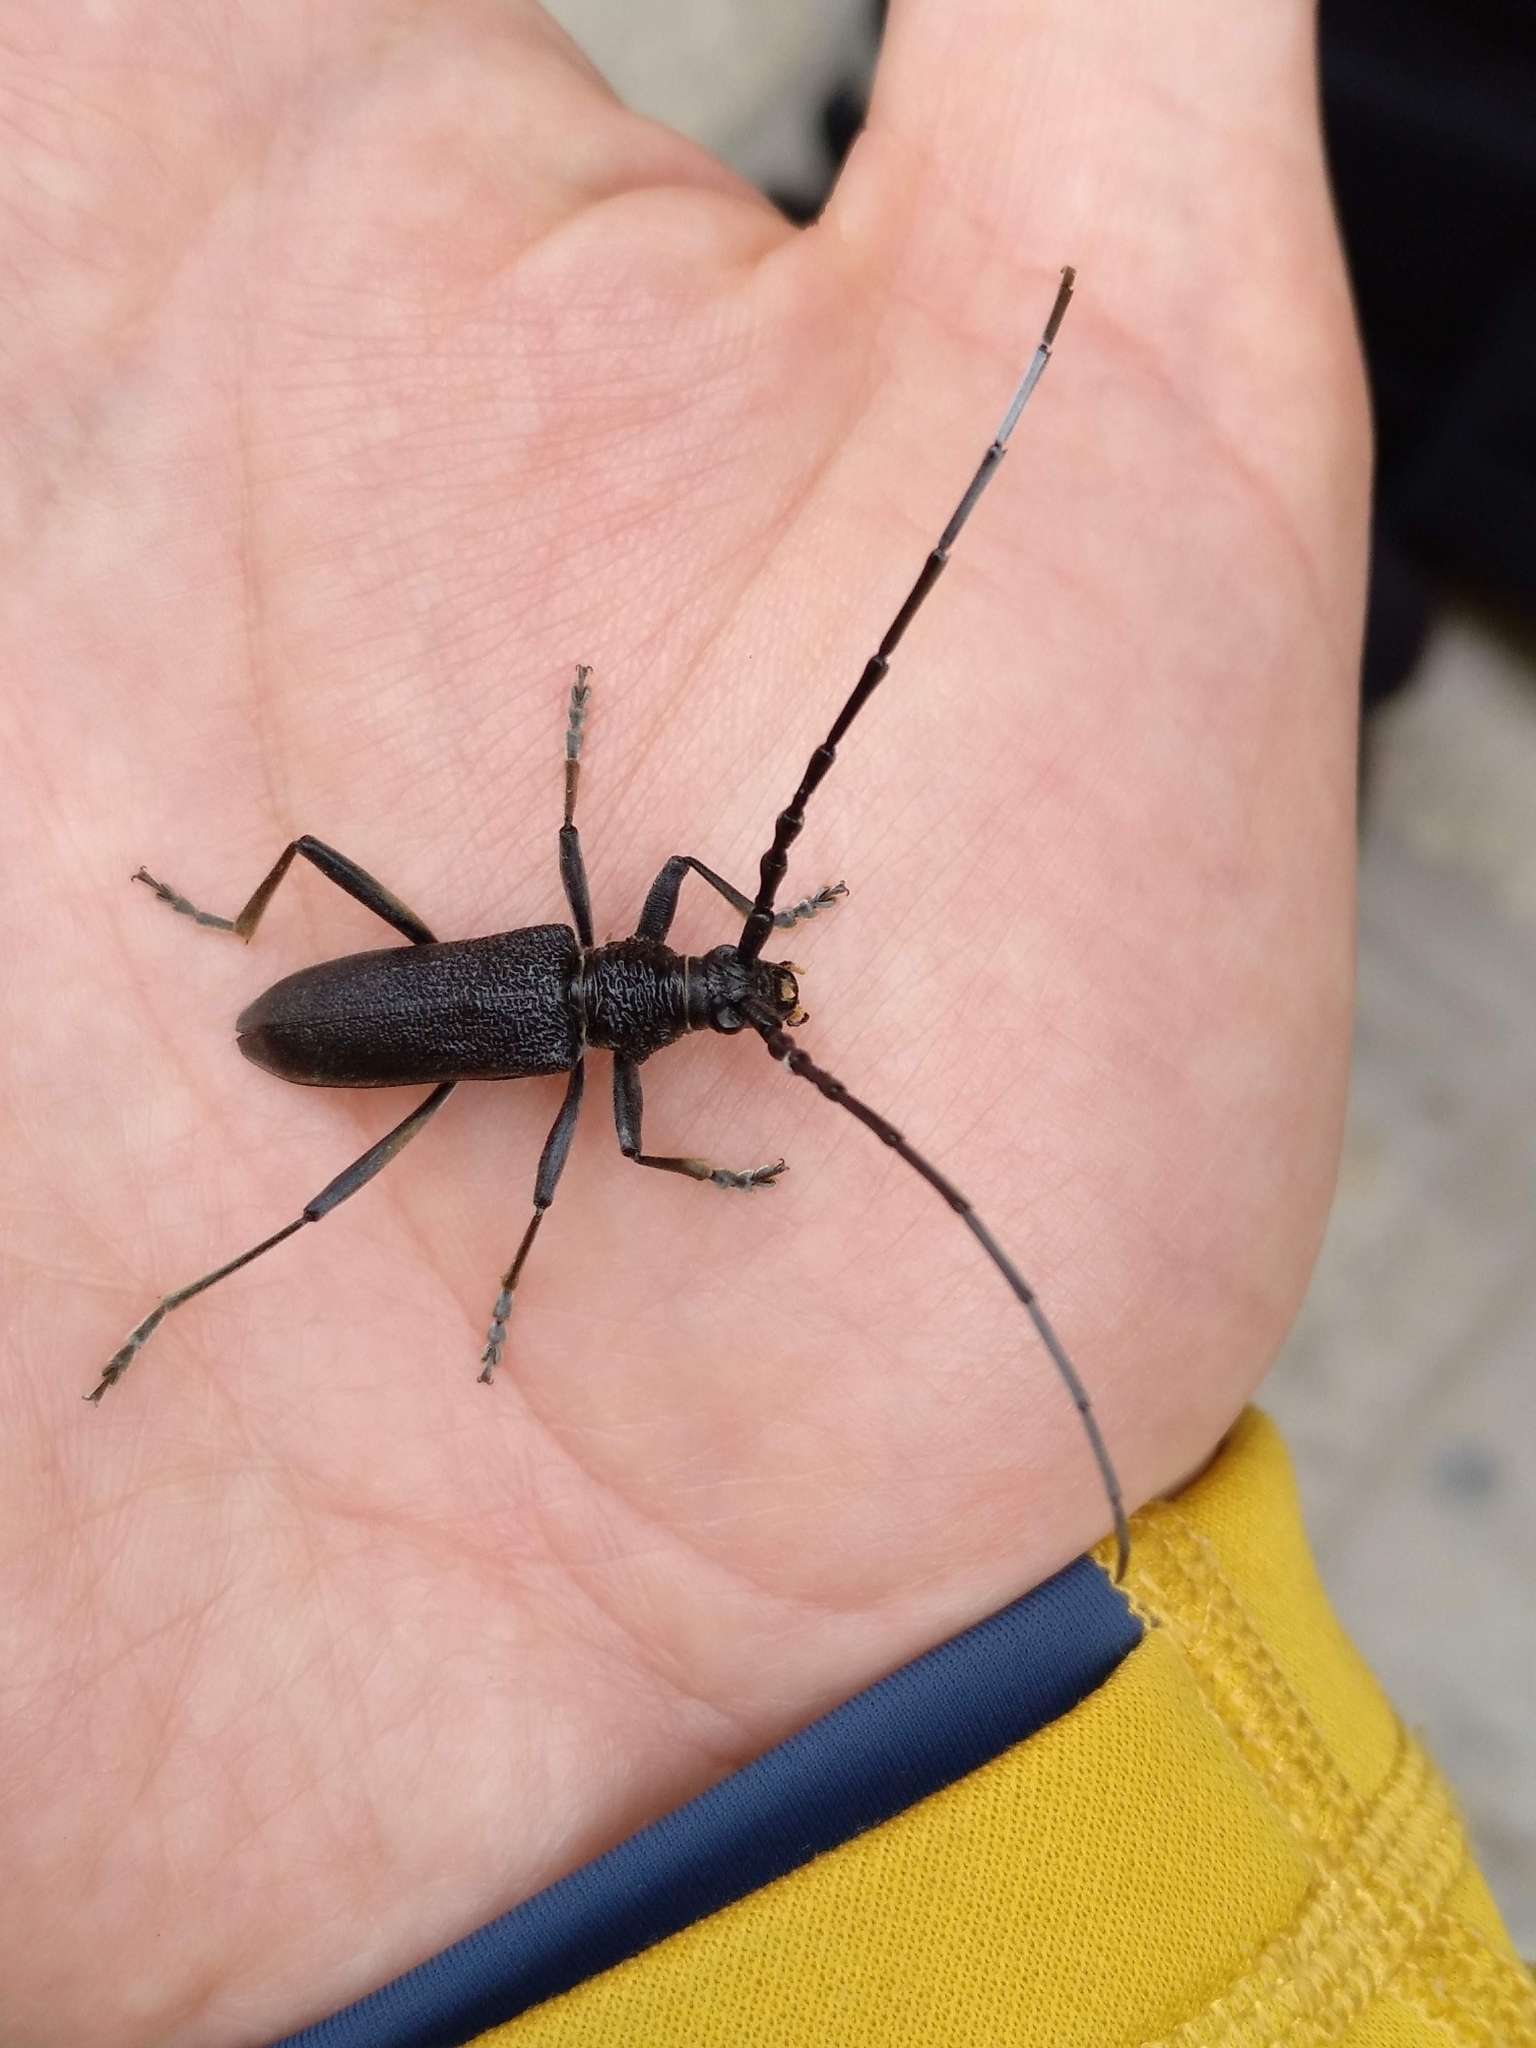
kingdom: Animalia
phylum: Arthropoda
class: Insecta
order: Coleoptera
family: Cerambycidae
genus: Cerambyx
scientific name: Cerambyx scopolii
